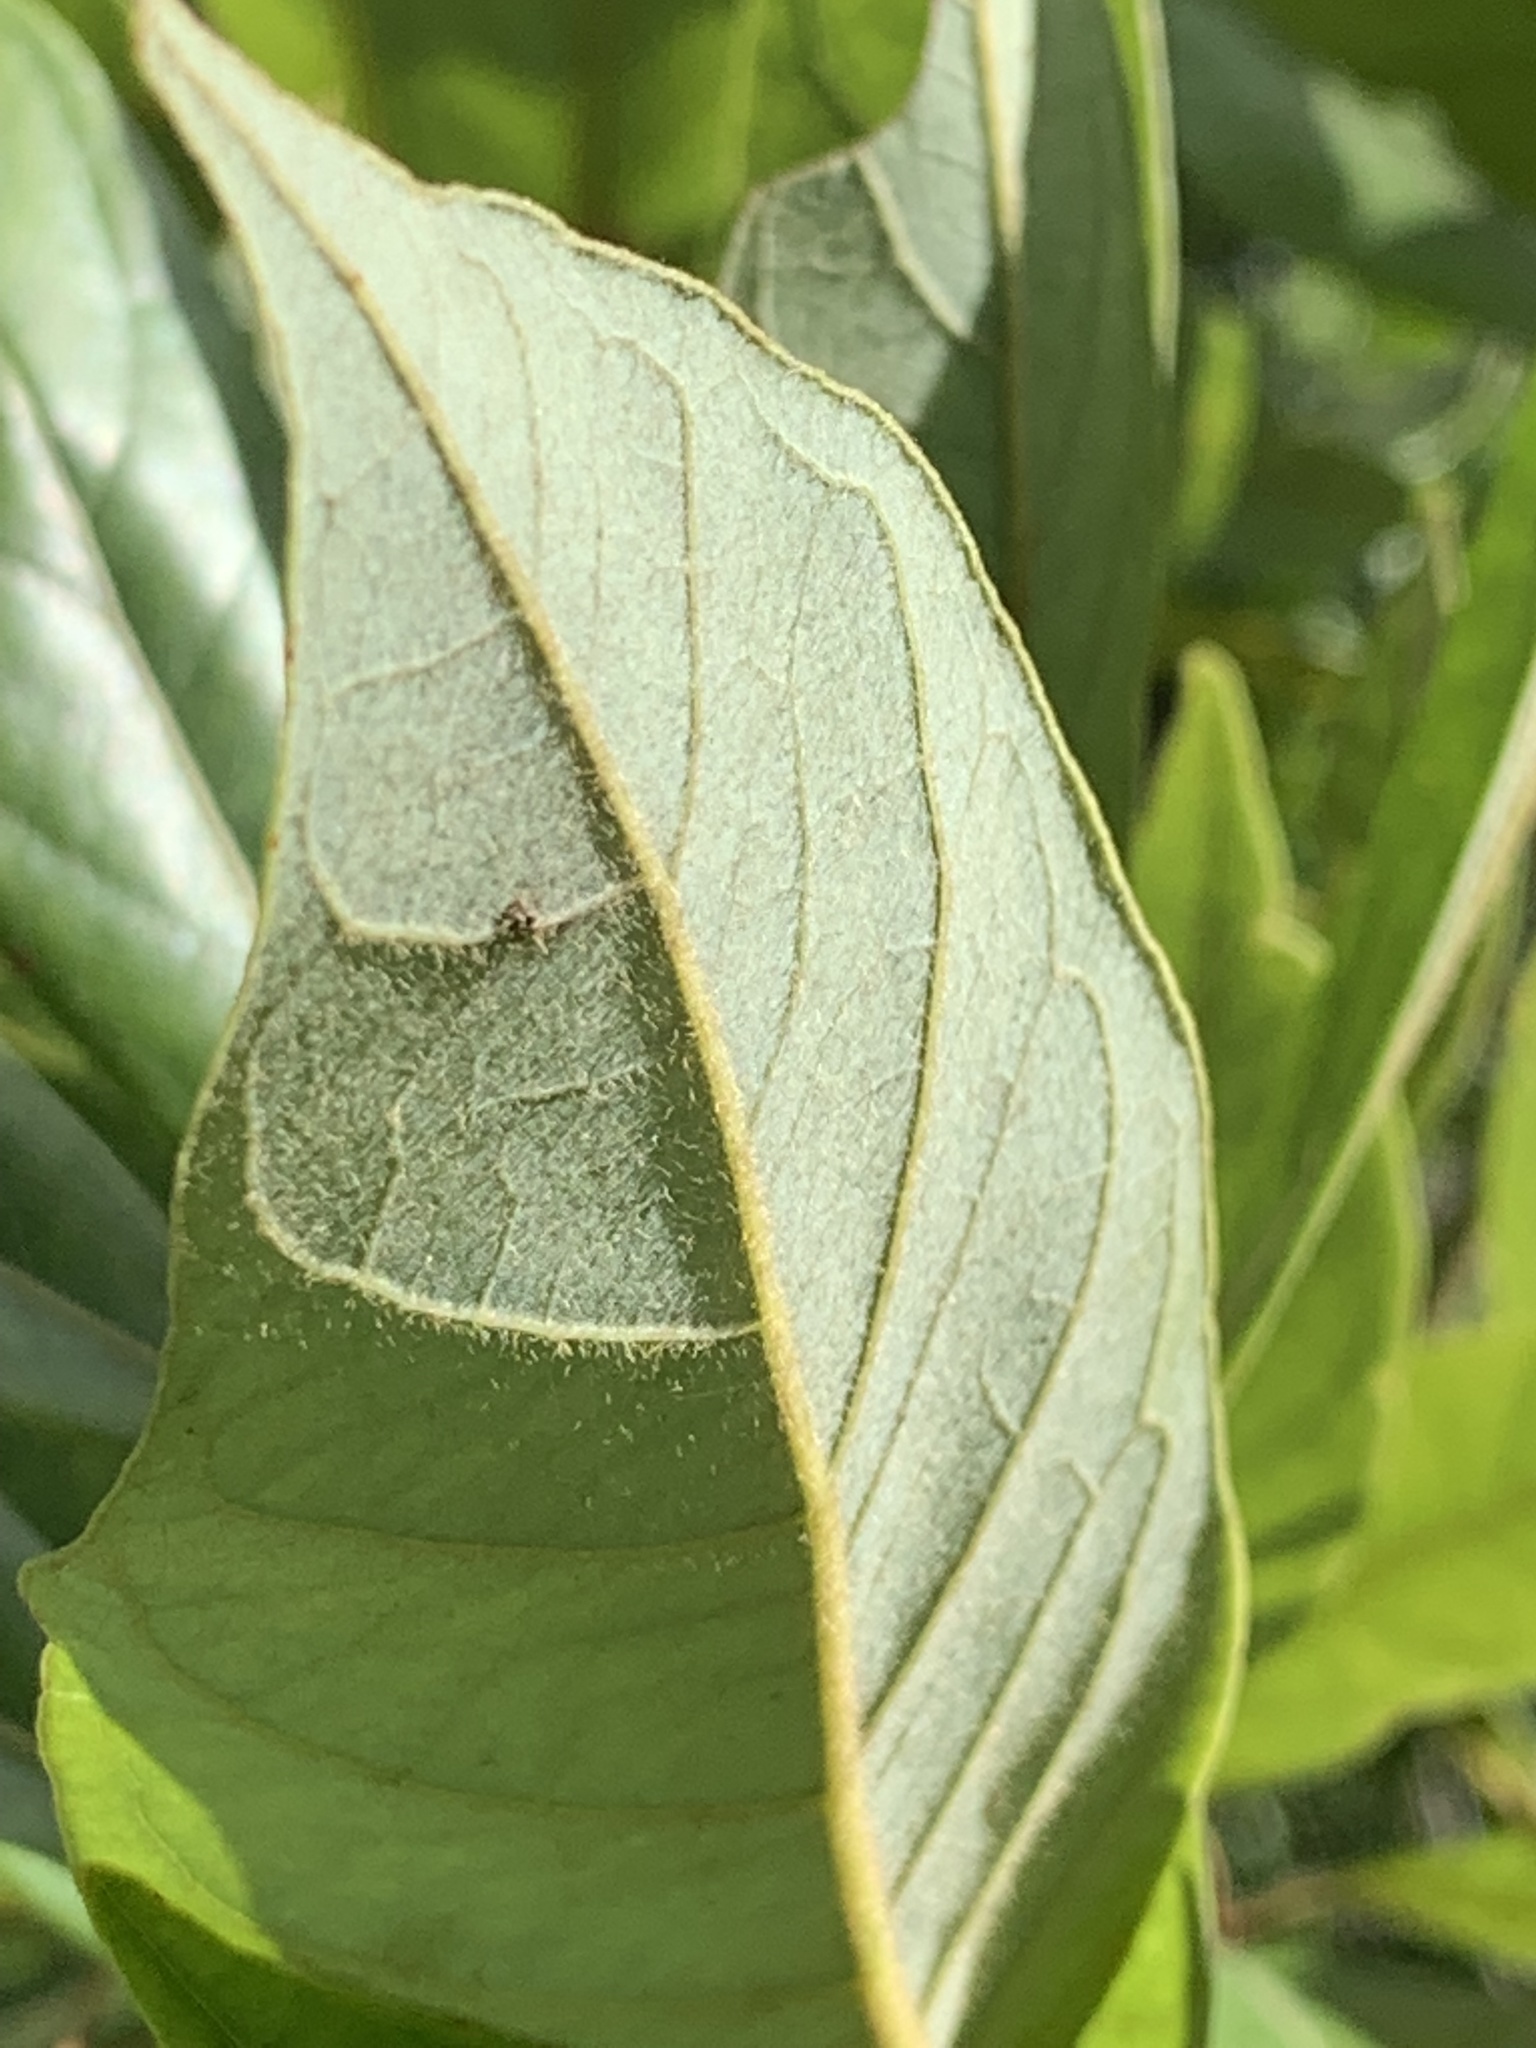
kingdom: Plantae
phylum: Tracheophyta
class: Magnoliopsida
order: Laurales
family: Lauraceae
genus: Persea
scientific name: Persea palustris
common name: Swampbay
